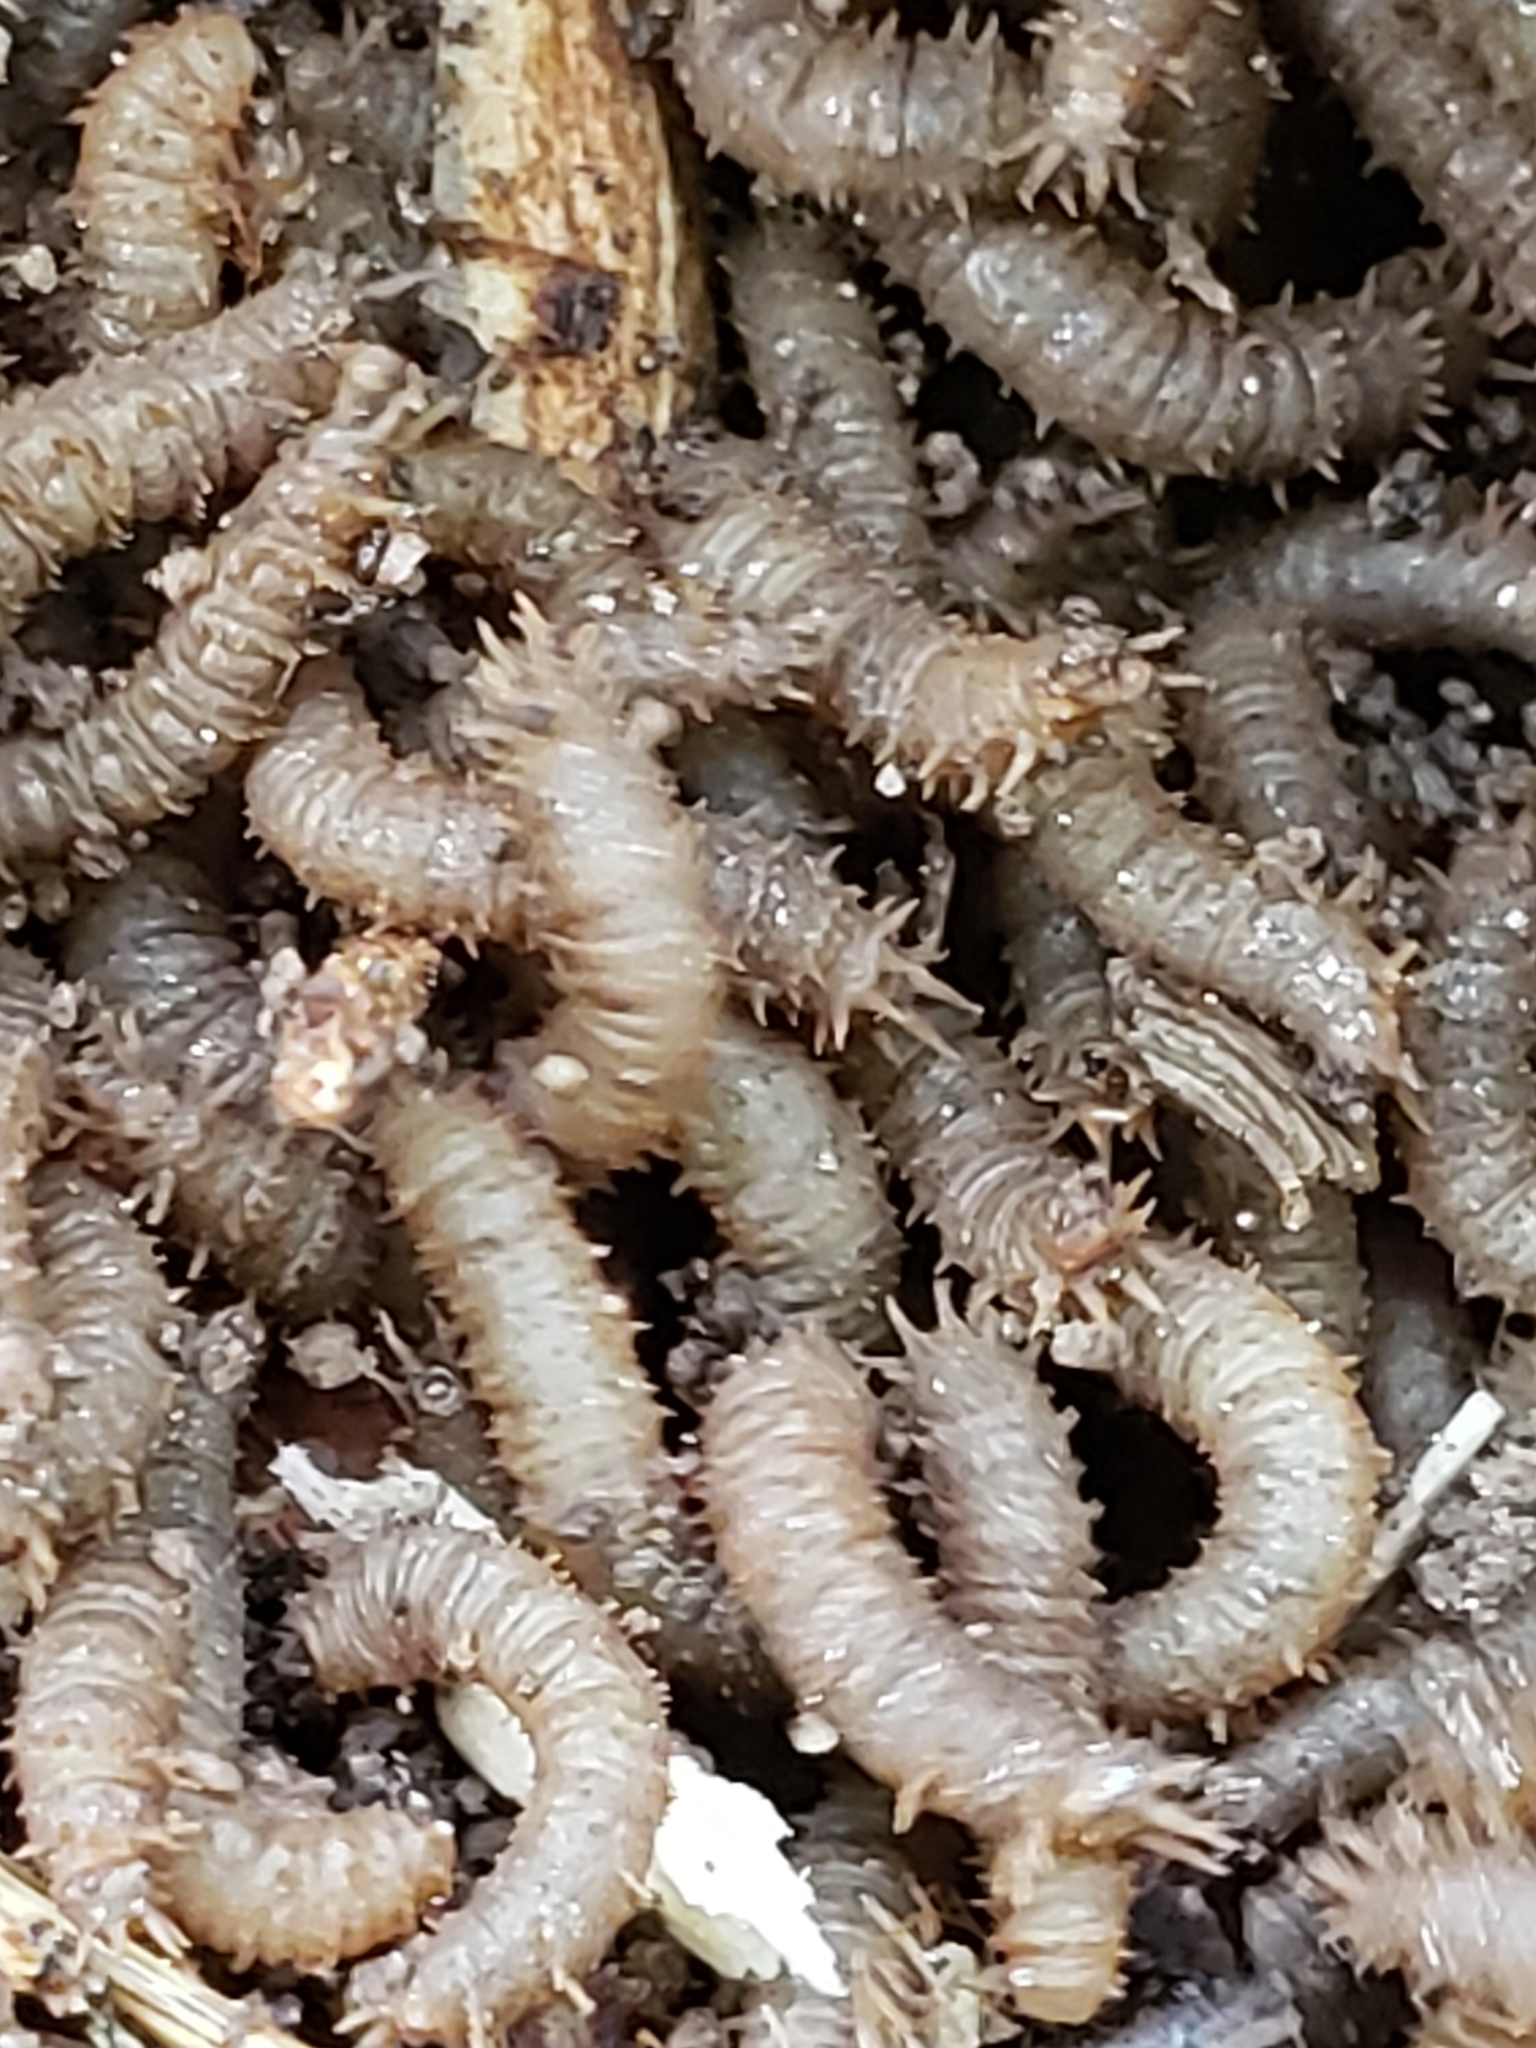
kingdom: Animalia
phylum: Arthropoda
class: Insecta
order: Diptera
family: Bibionidae
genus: Bibio
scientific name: Bibio
